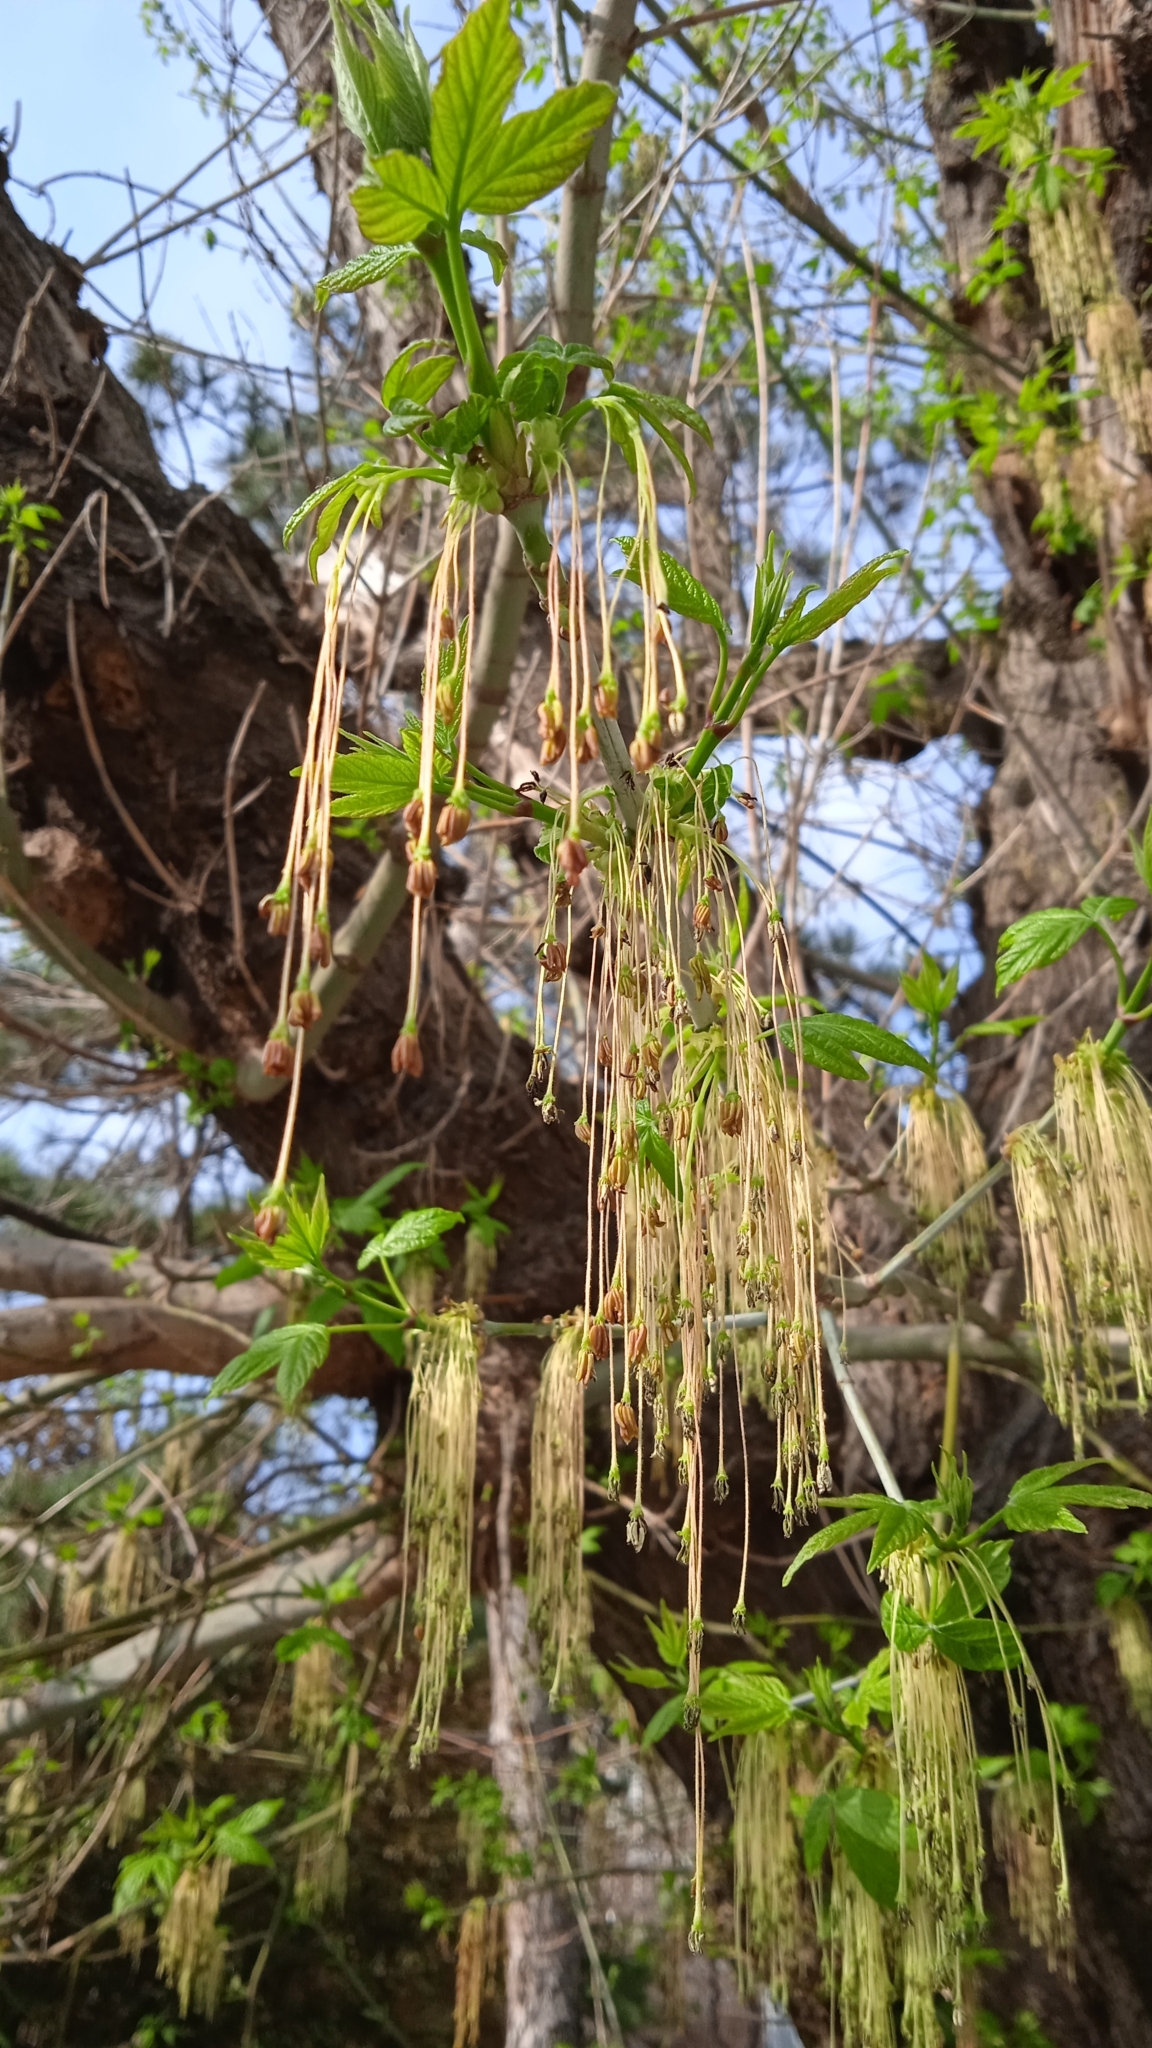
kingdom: Plantae
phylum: Tracheophyta
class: Magnoliopsida
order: Sapindales
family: Sapindaceae
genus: Acer
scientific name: Acer negundo
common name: Ashleaf maple
